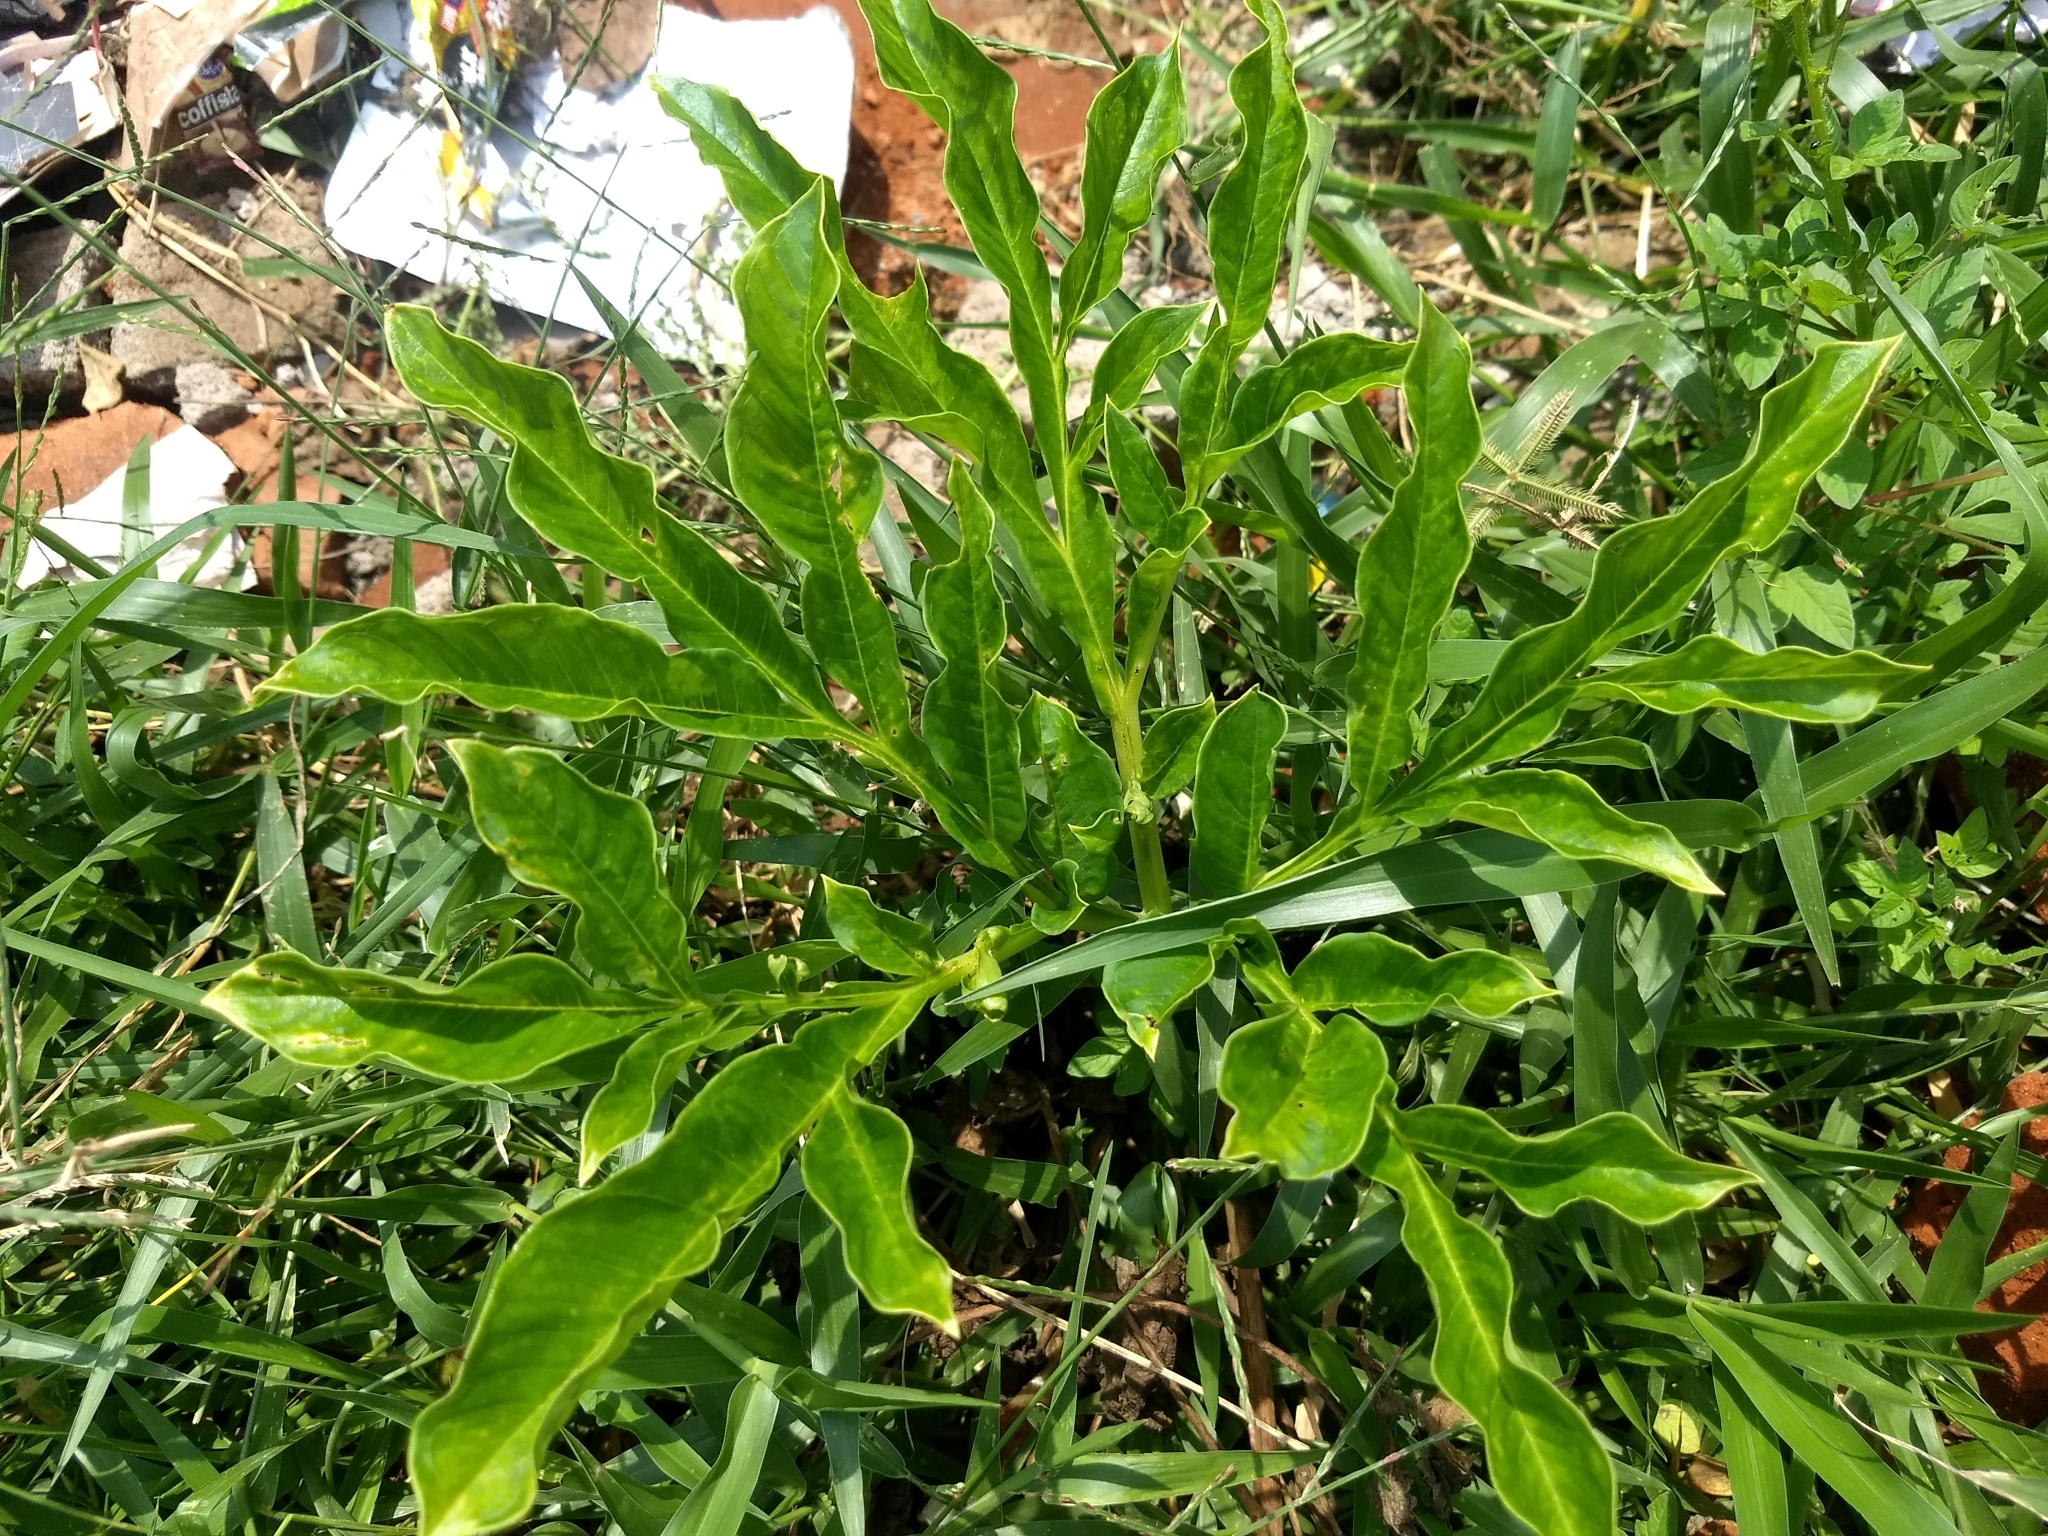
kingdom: Plantae
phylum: Tracheophyta
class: Liliopsida
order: Alismatales
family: Araceae
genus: Amorphophallus
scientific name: Amorphophallus paeoniifolius
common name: Telinga-potato
